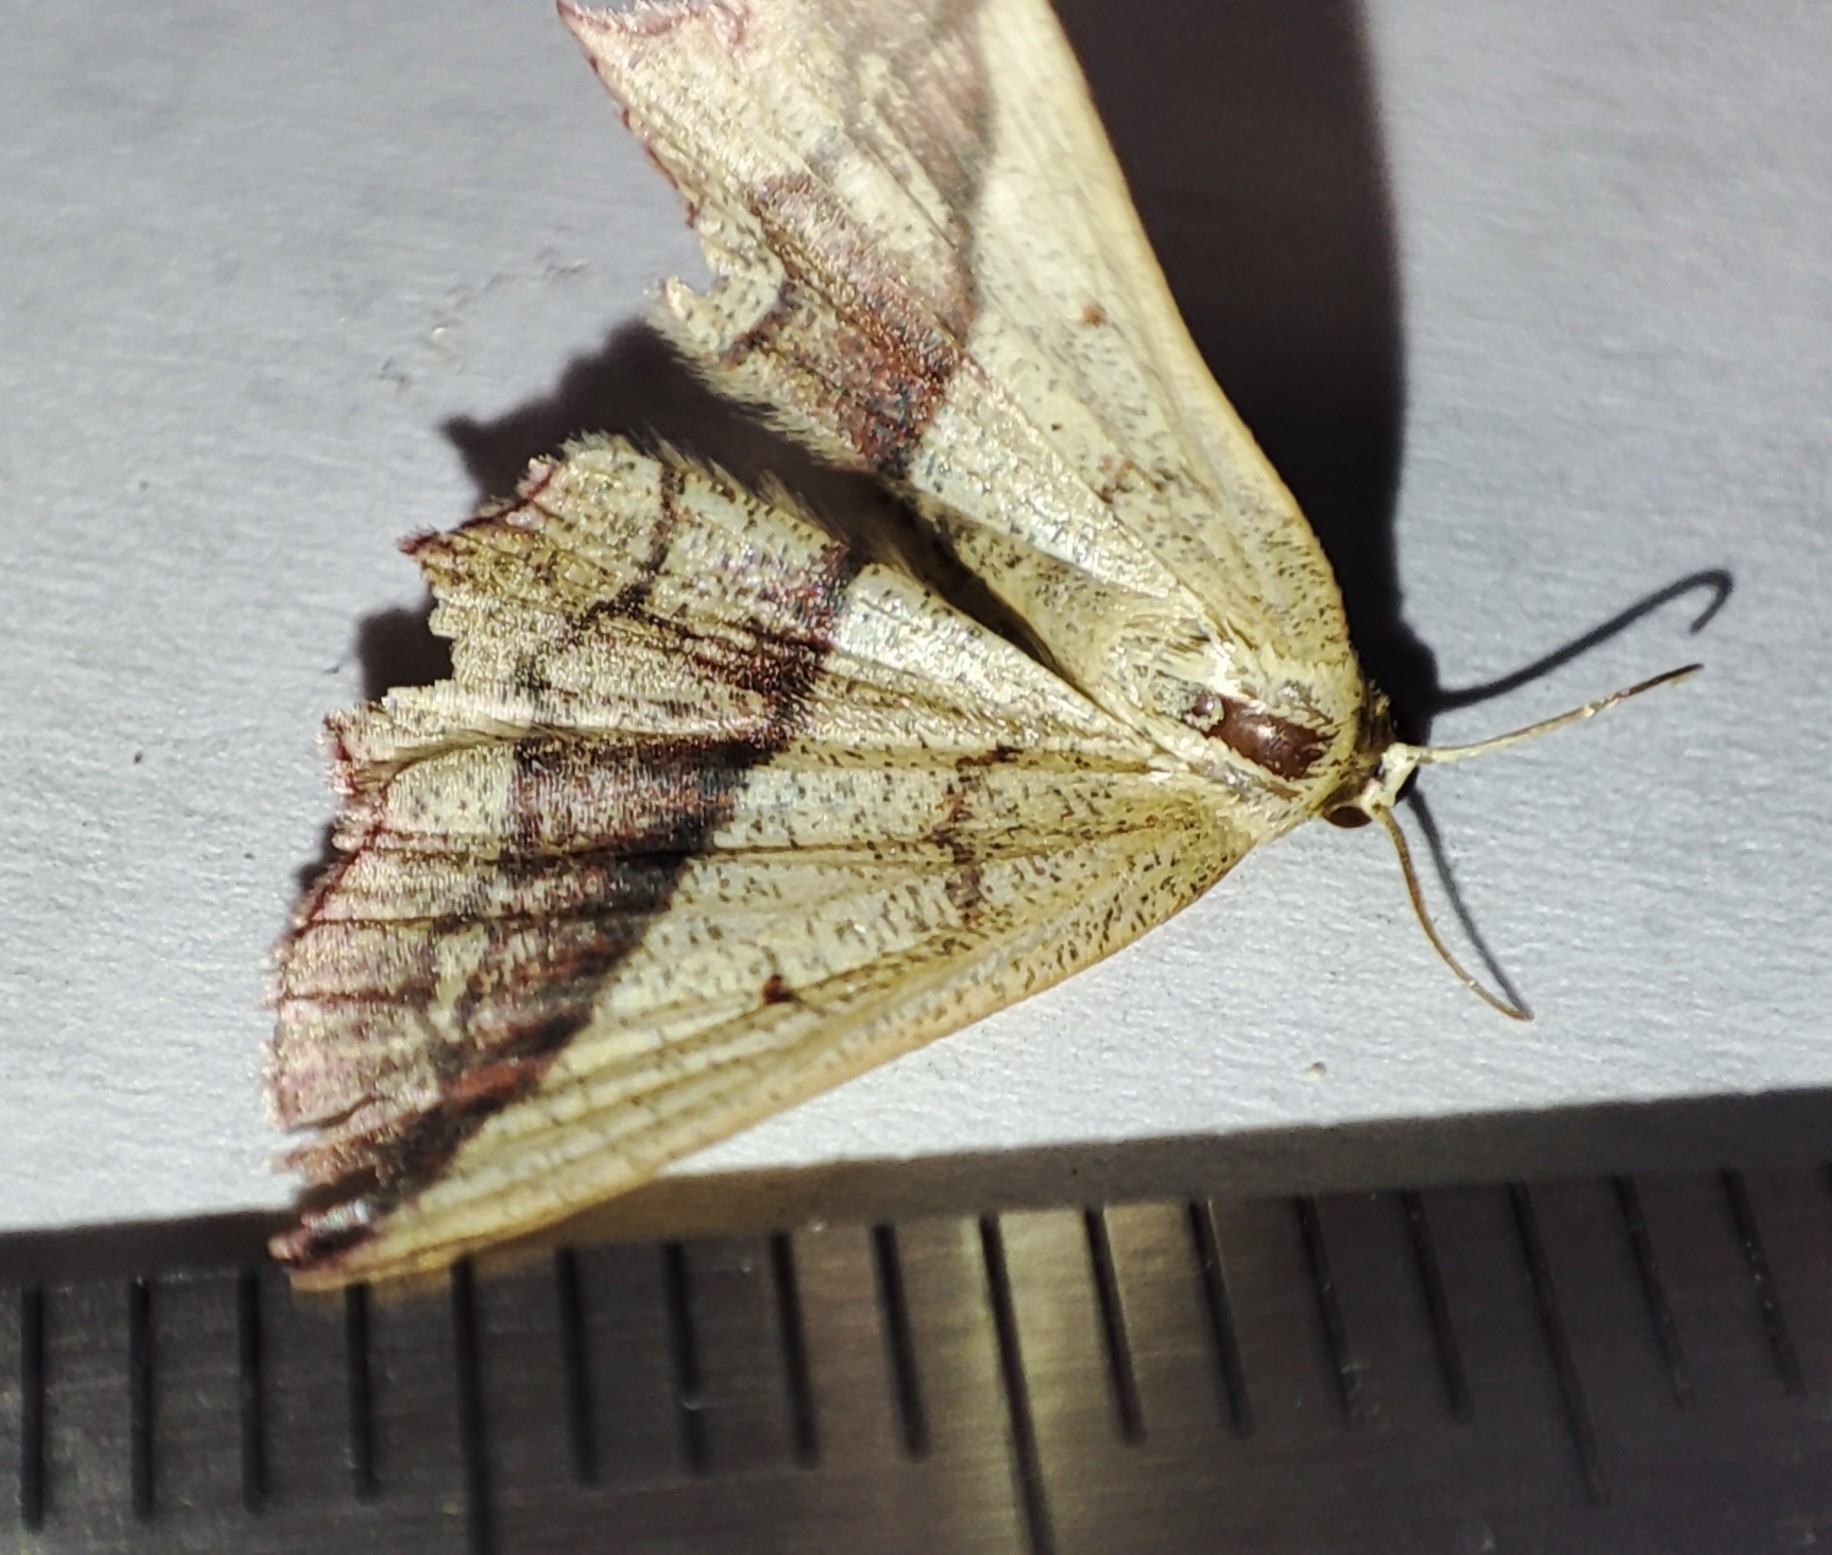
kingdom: Animalia
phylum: Arthropoda
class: Insecta
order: Lepidoptera
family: Geometridae
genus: Timandra
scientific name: Timandra comae
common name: Blood-vein
